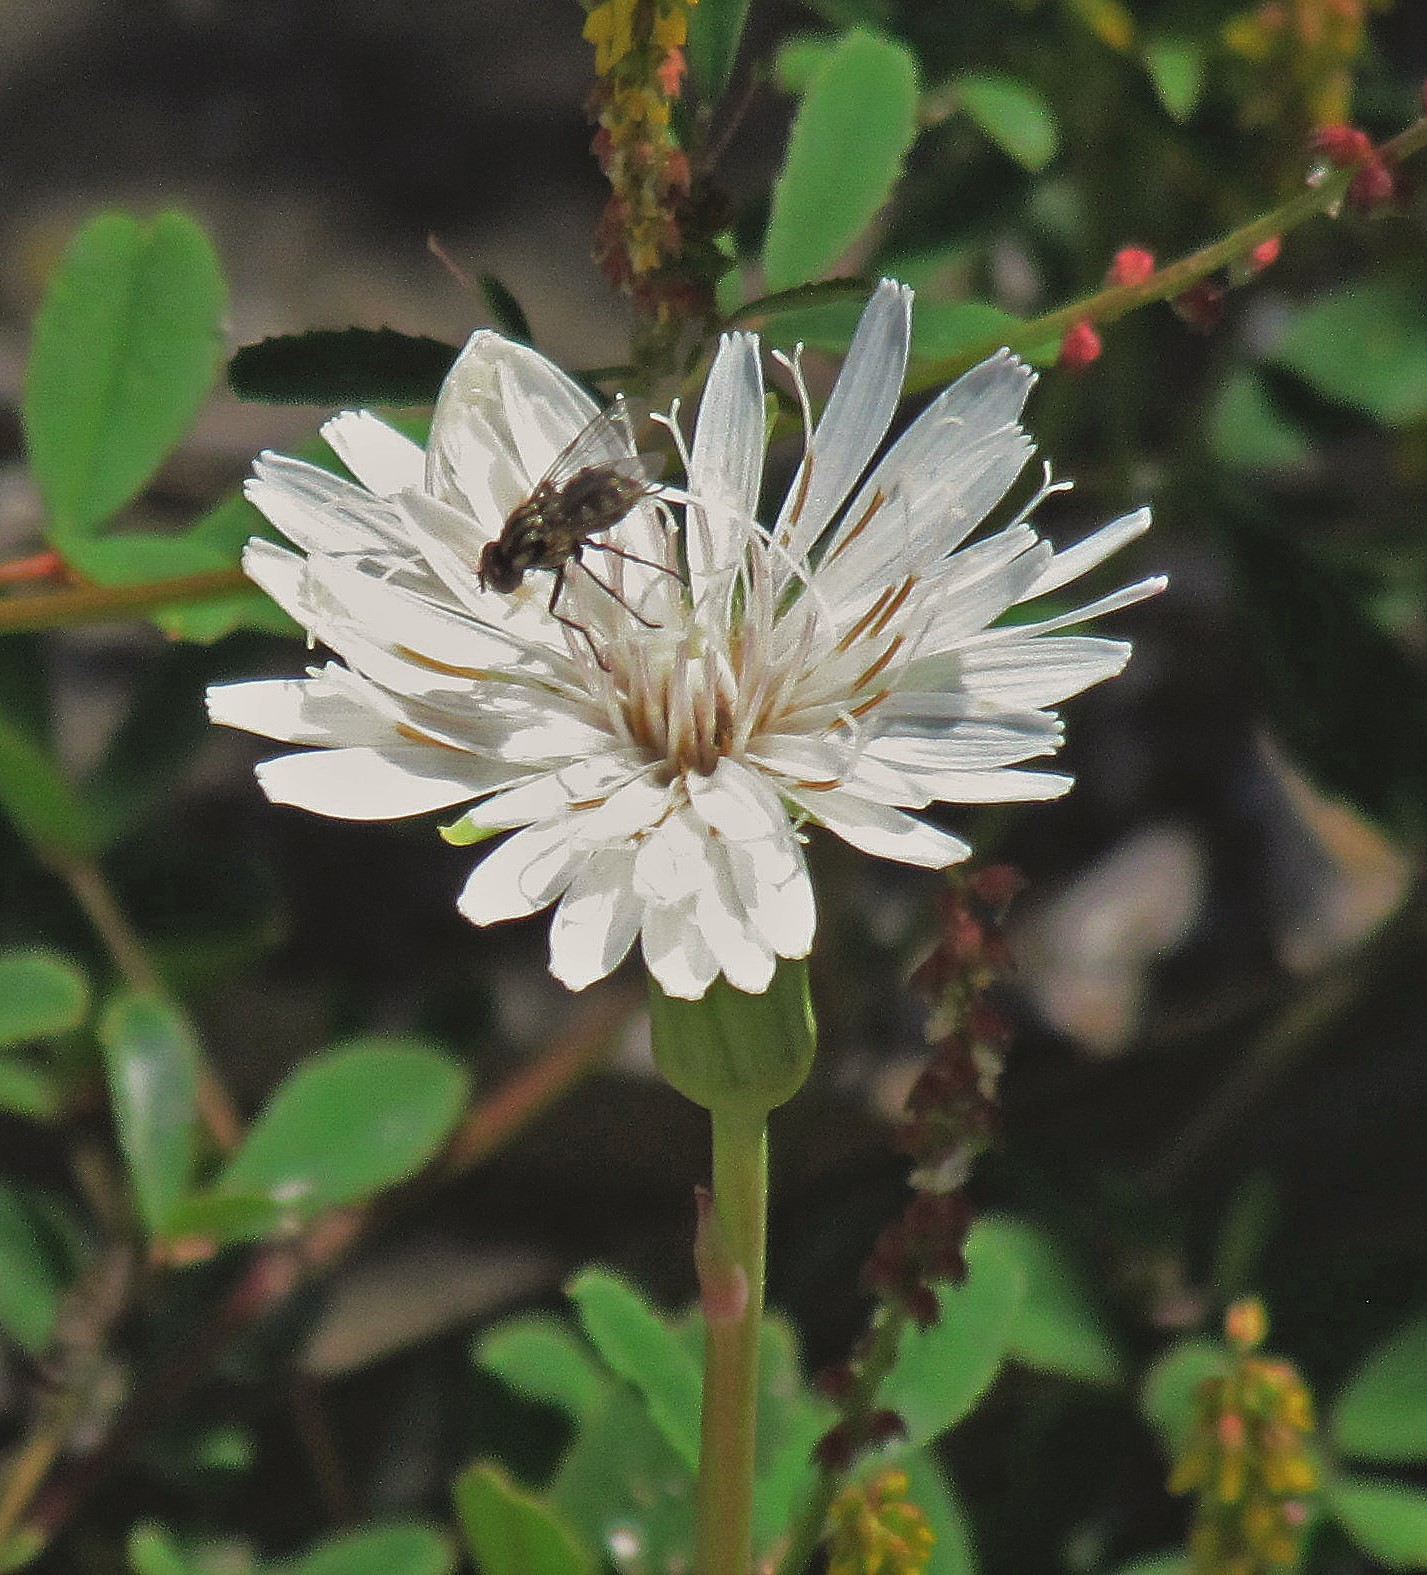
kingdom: Plantae
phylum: Tracheophyta
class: Magnoliopsida
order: Asterales
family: Asteraceae
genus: Picrosia
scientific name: Picrosia longifolia
